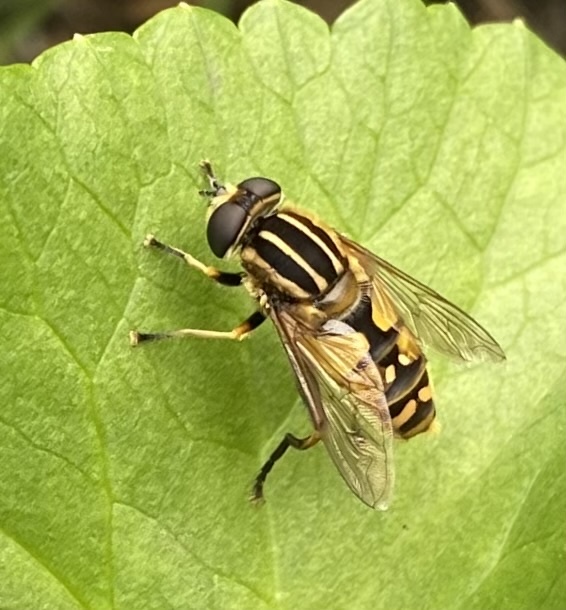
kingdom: Animalia
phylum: Arthropoda
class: Insecta
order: Diptera
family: Syrphidae
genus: Helophilus
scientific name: Helophilus pendulus
